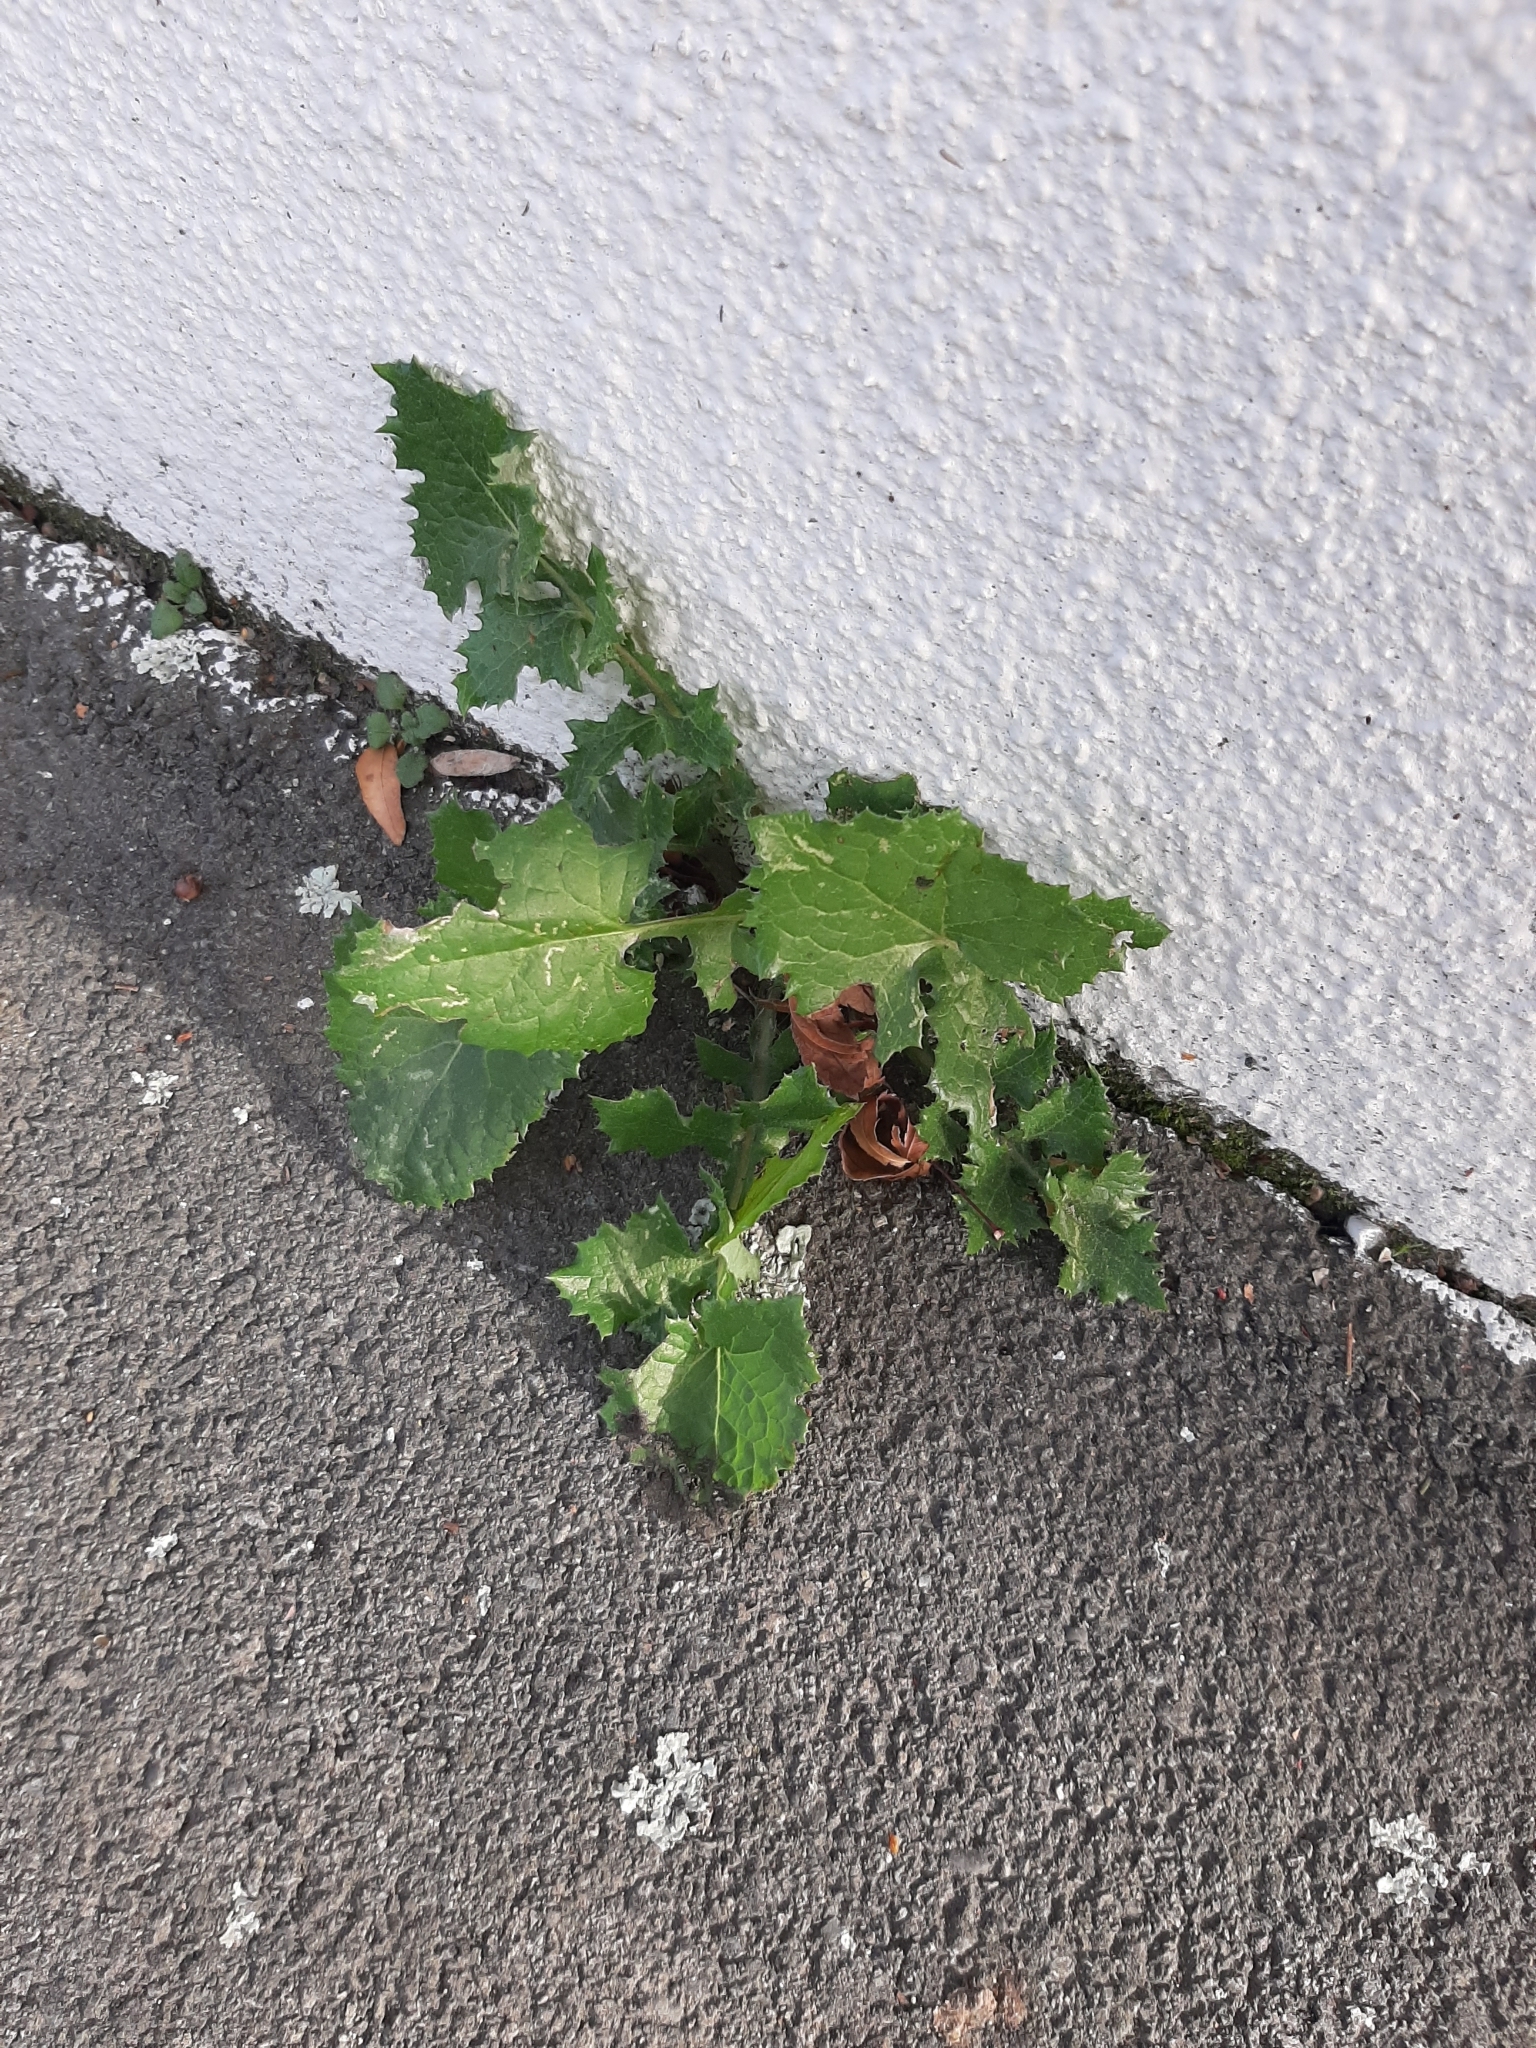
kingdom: Plantae
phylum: Tracheophyta
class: Magnoliopsida
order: Asterales
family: Asteraceae
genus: Sonchus
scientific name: Sonchus asper
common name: Prickly sow-thistle
